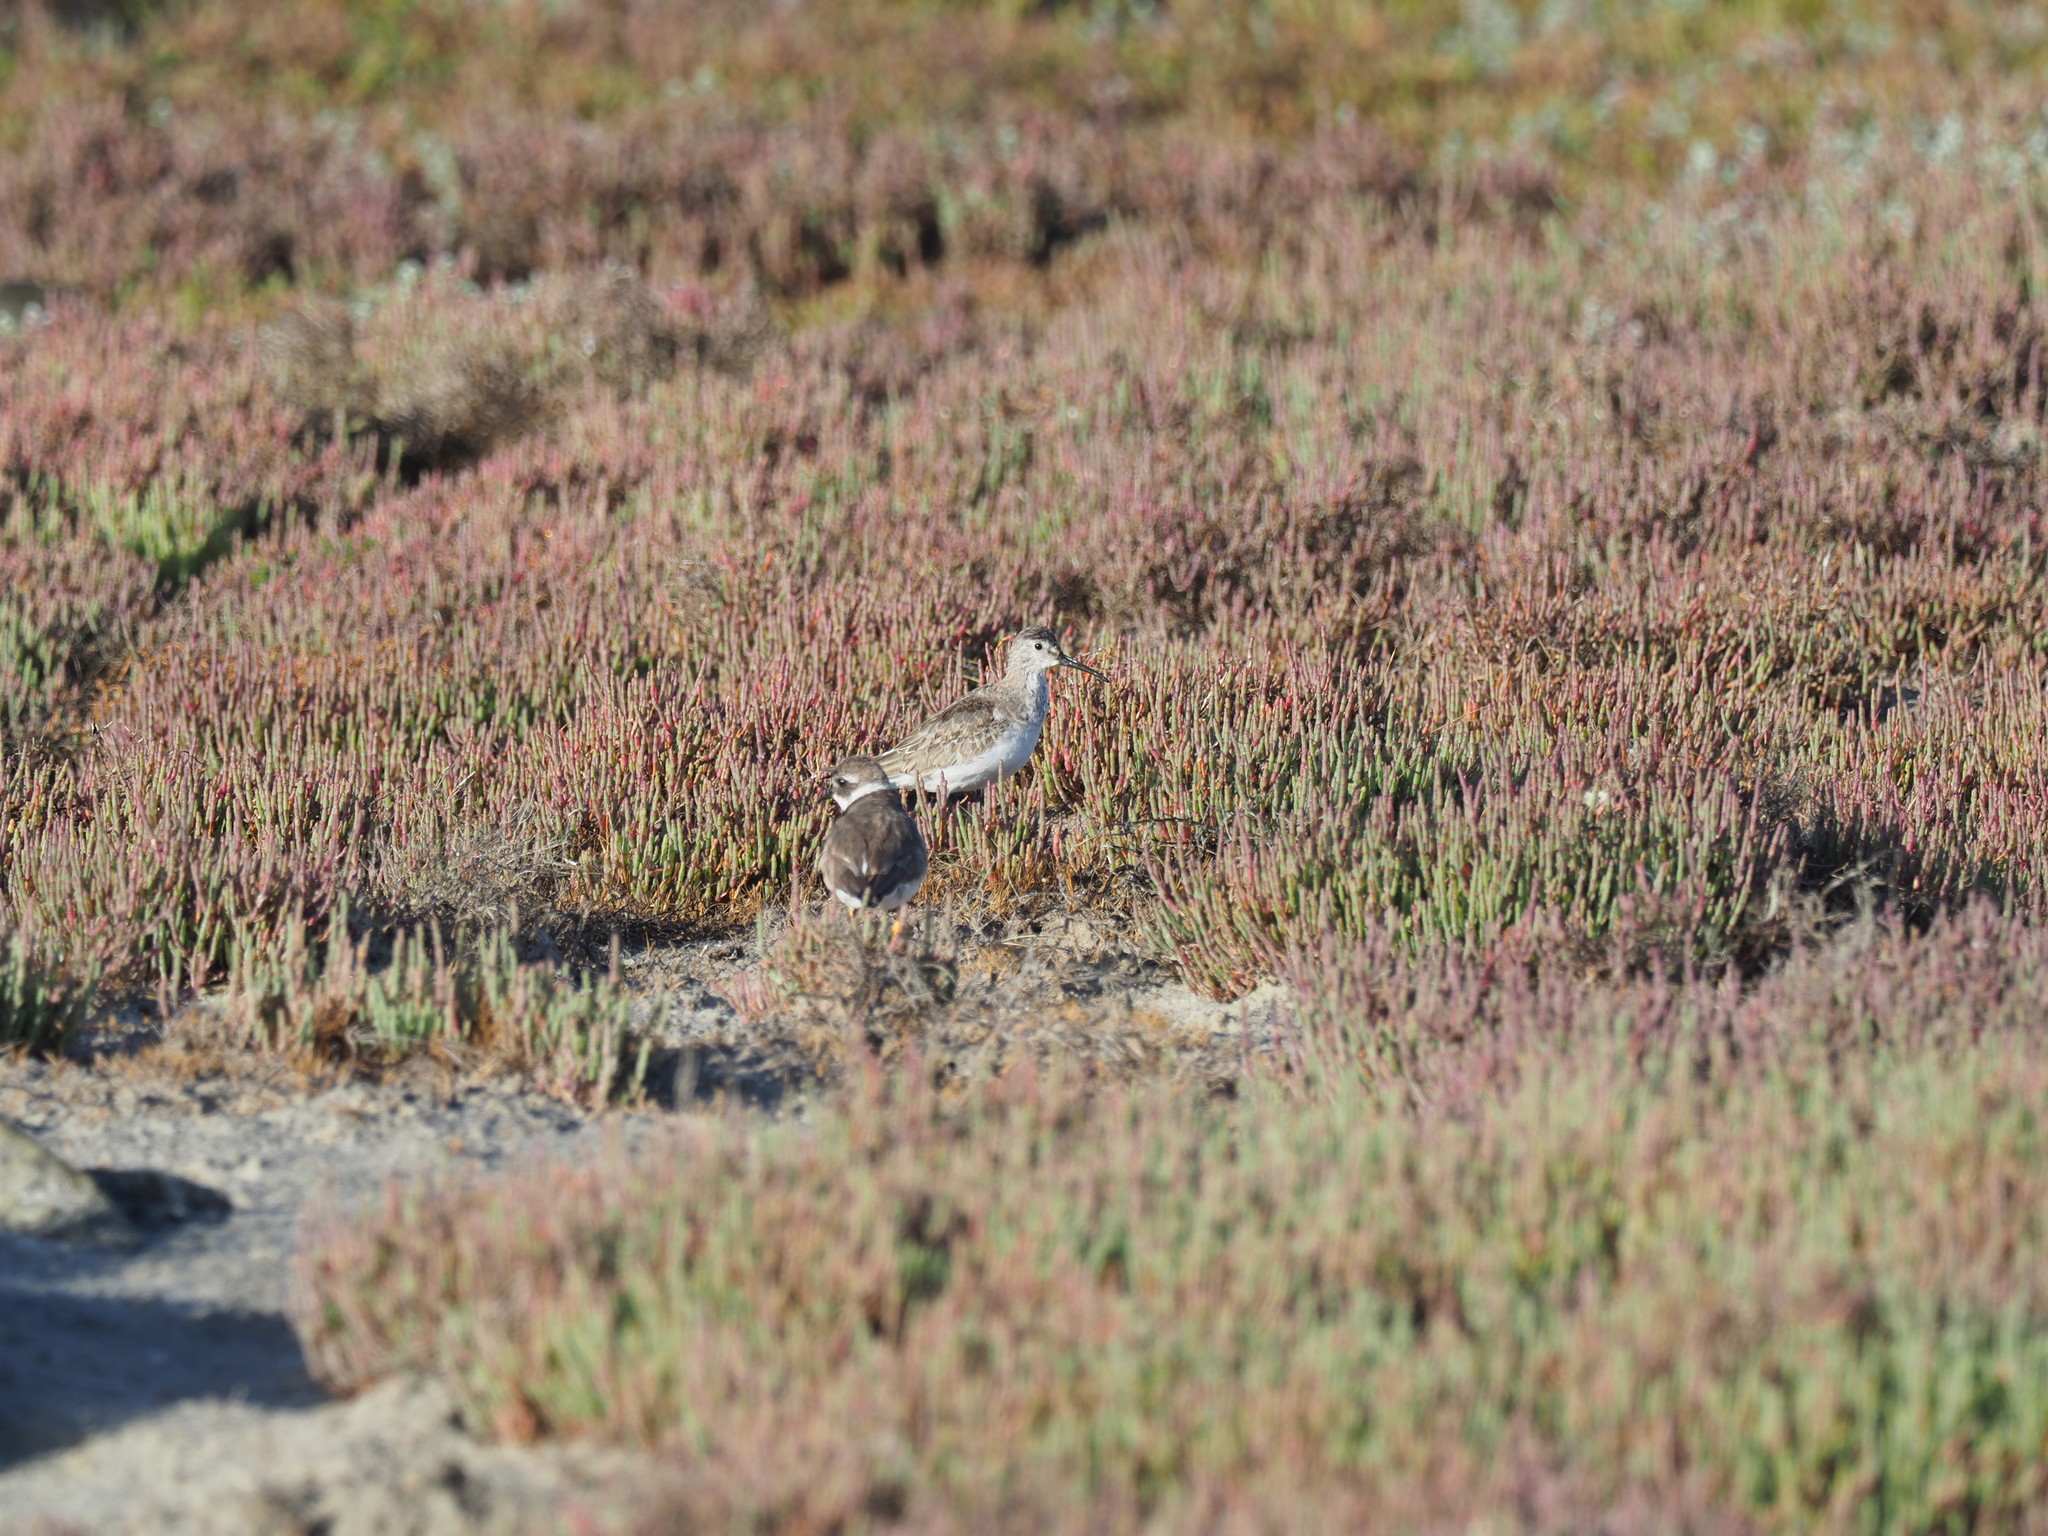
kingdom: Animalia
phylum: Chordata
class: Aves
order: Charadriiformes
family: Scolopacidae
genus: Calidris
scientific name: Calidris ferruginea
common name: Curlew sandpiper
